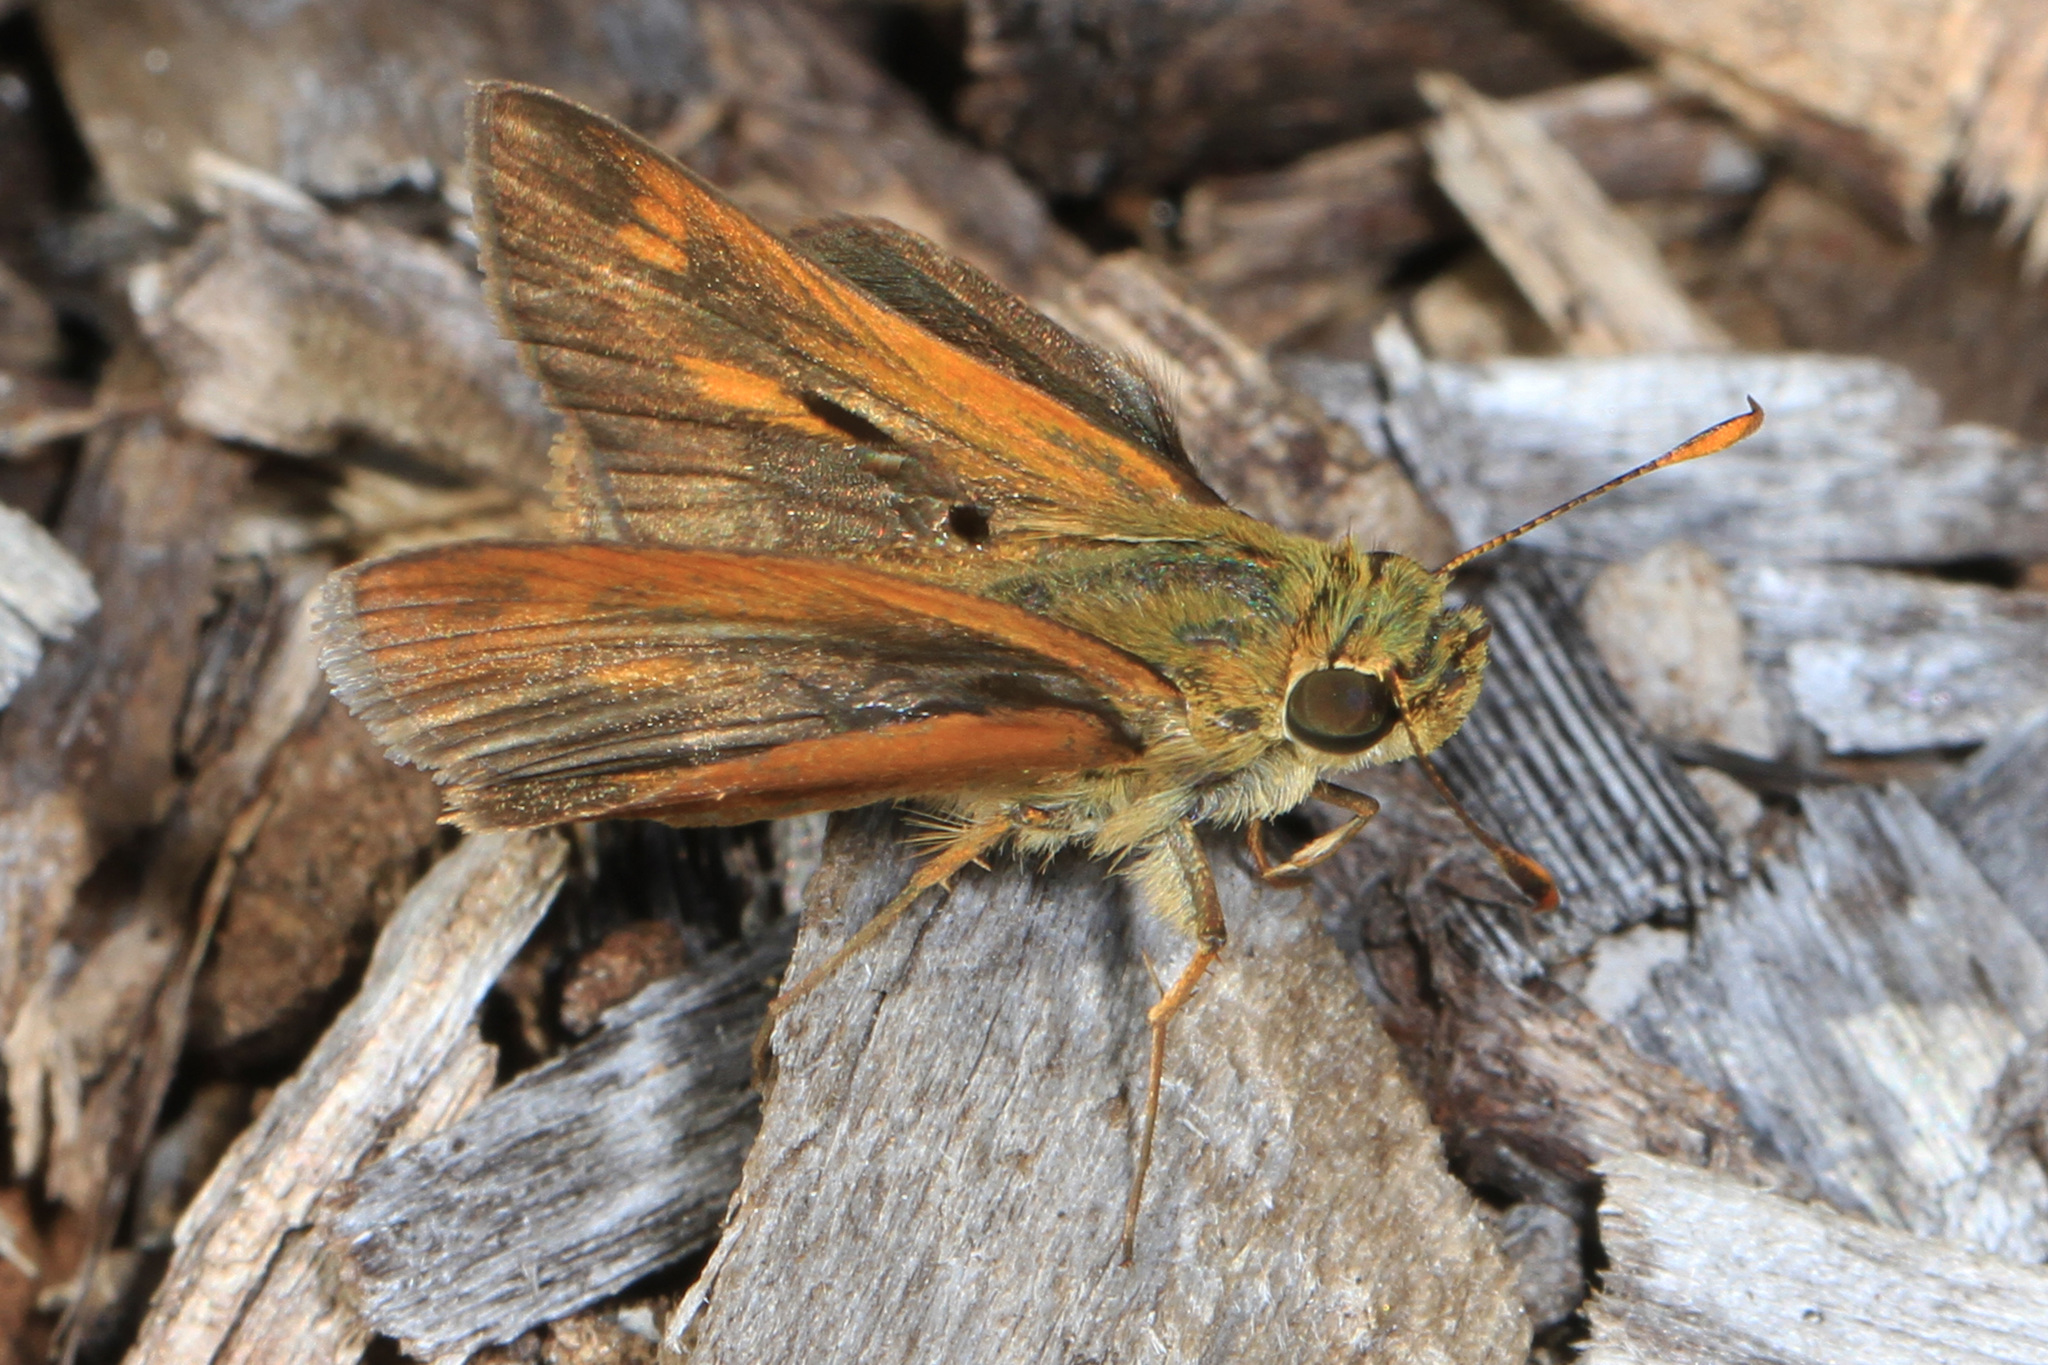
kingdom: Animalia
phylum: Arthropoda
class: Insecta
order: Lepidoptera
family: Hesperiidae
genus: Polites
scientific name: Polites otho
